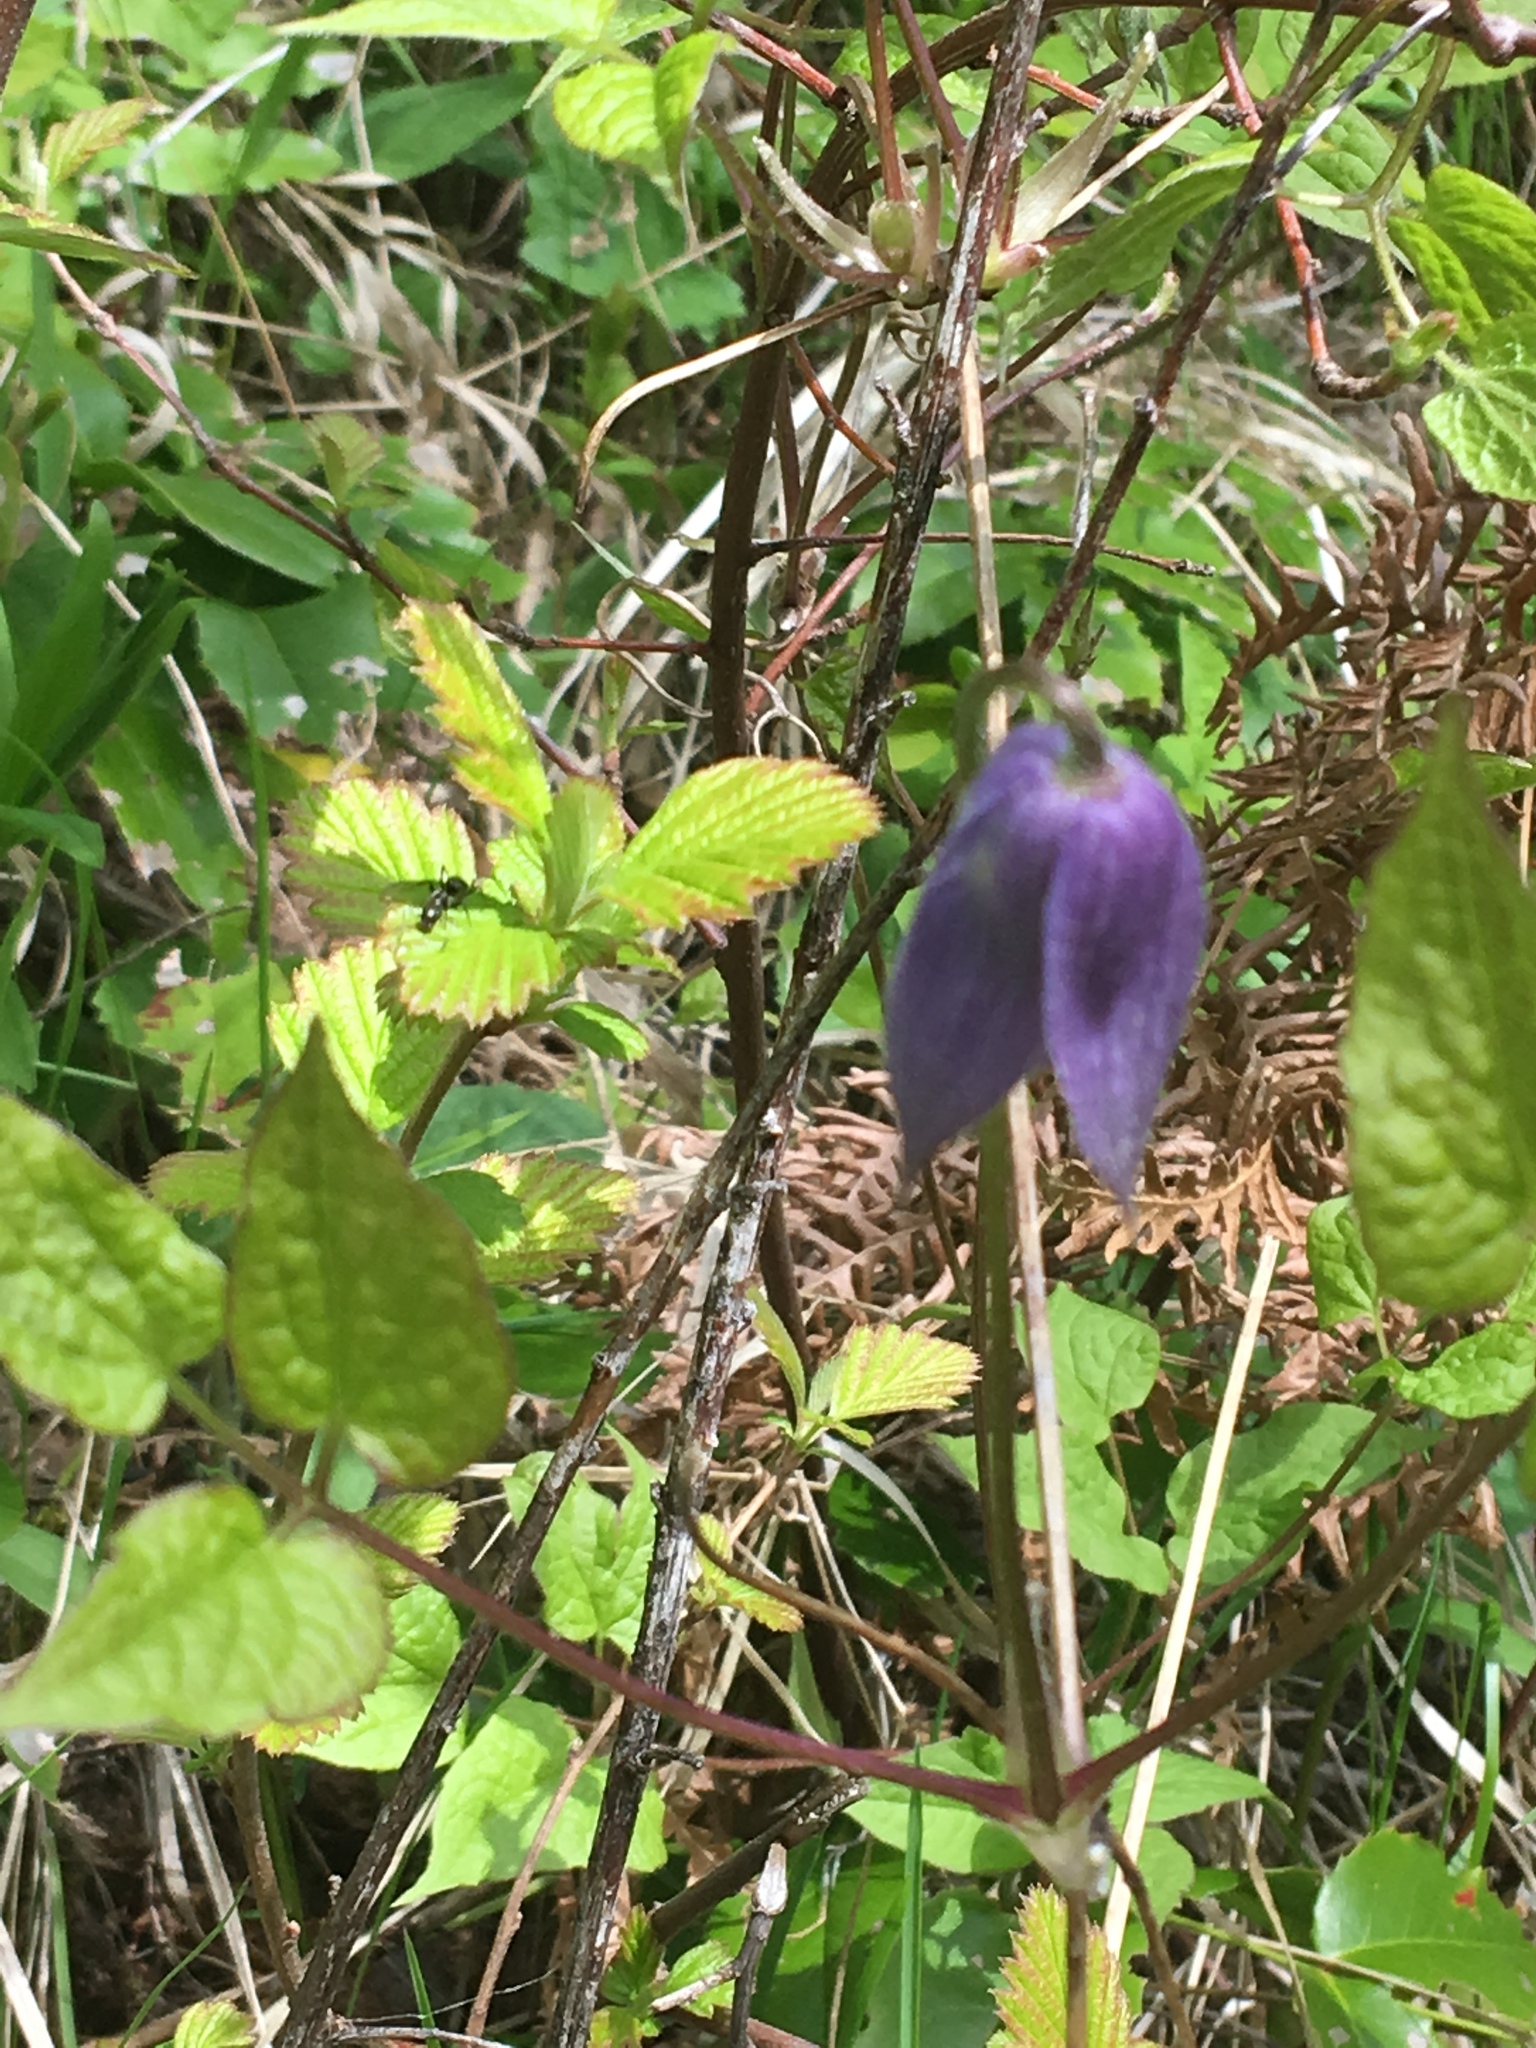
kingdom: Plantae
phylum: Tracheophyta
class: Magnoliopsida
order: Ranunculales
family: Ranunculaceae
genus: Clematis
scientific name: Clematis occidentalis
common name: Purple clematis
